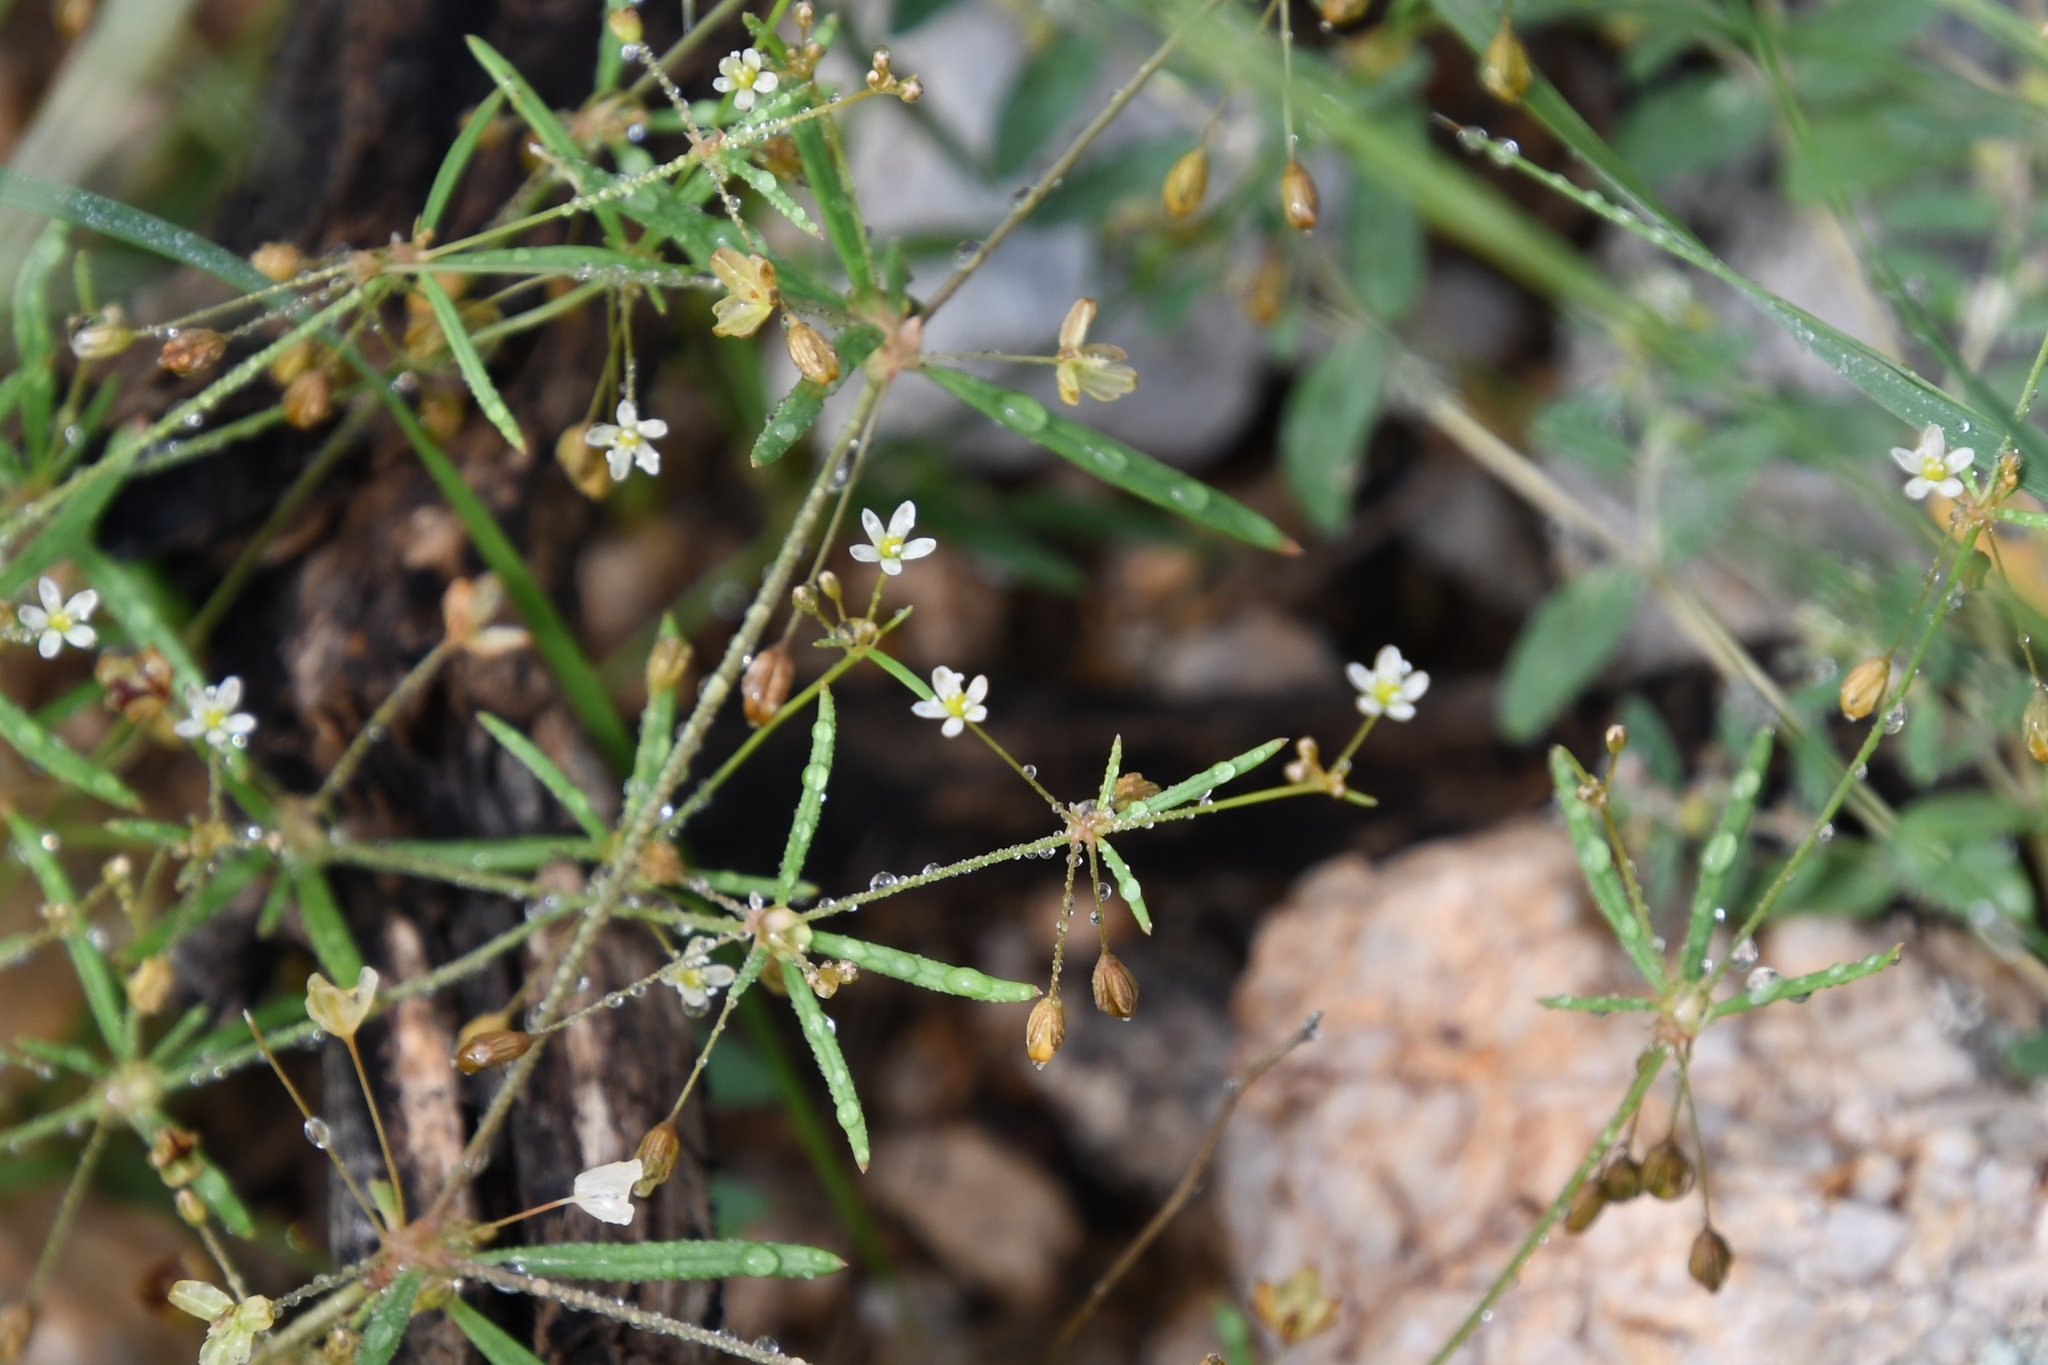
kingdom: Plantae
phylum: Tracheophyta
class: Magnoliopsida
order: Caryophyllales
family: Molluginaceae
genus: Mollugo
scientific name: Mollugo verticillata
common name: Green carpetweed
